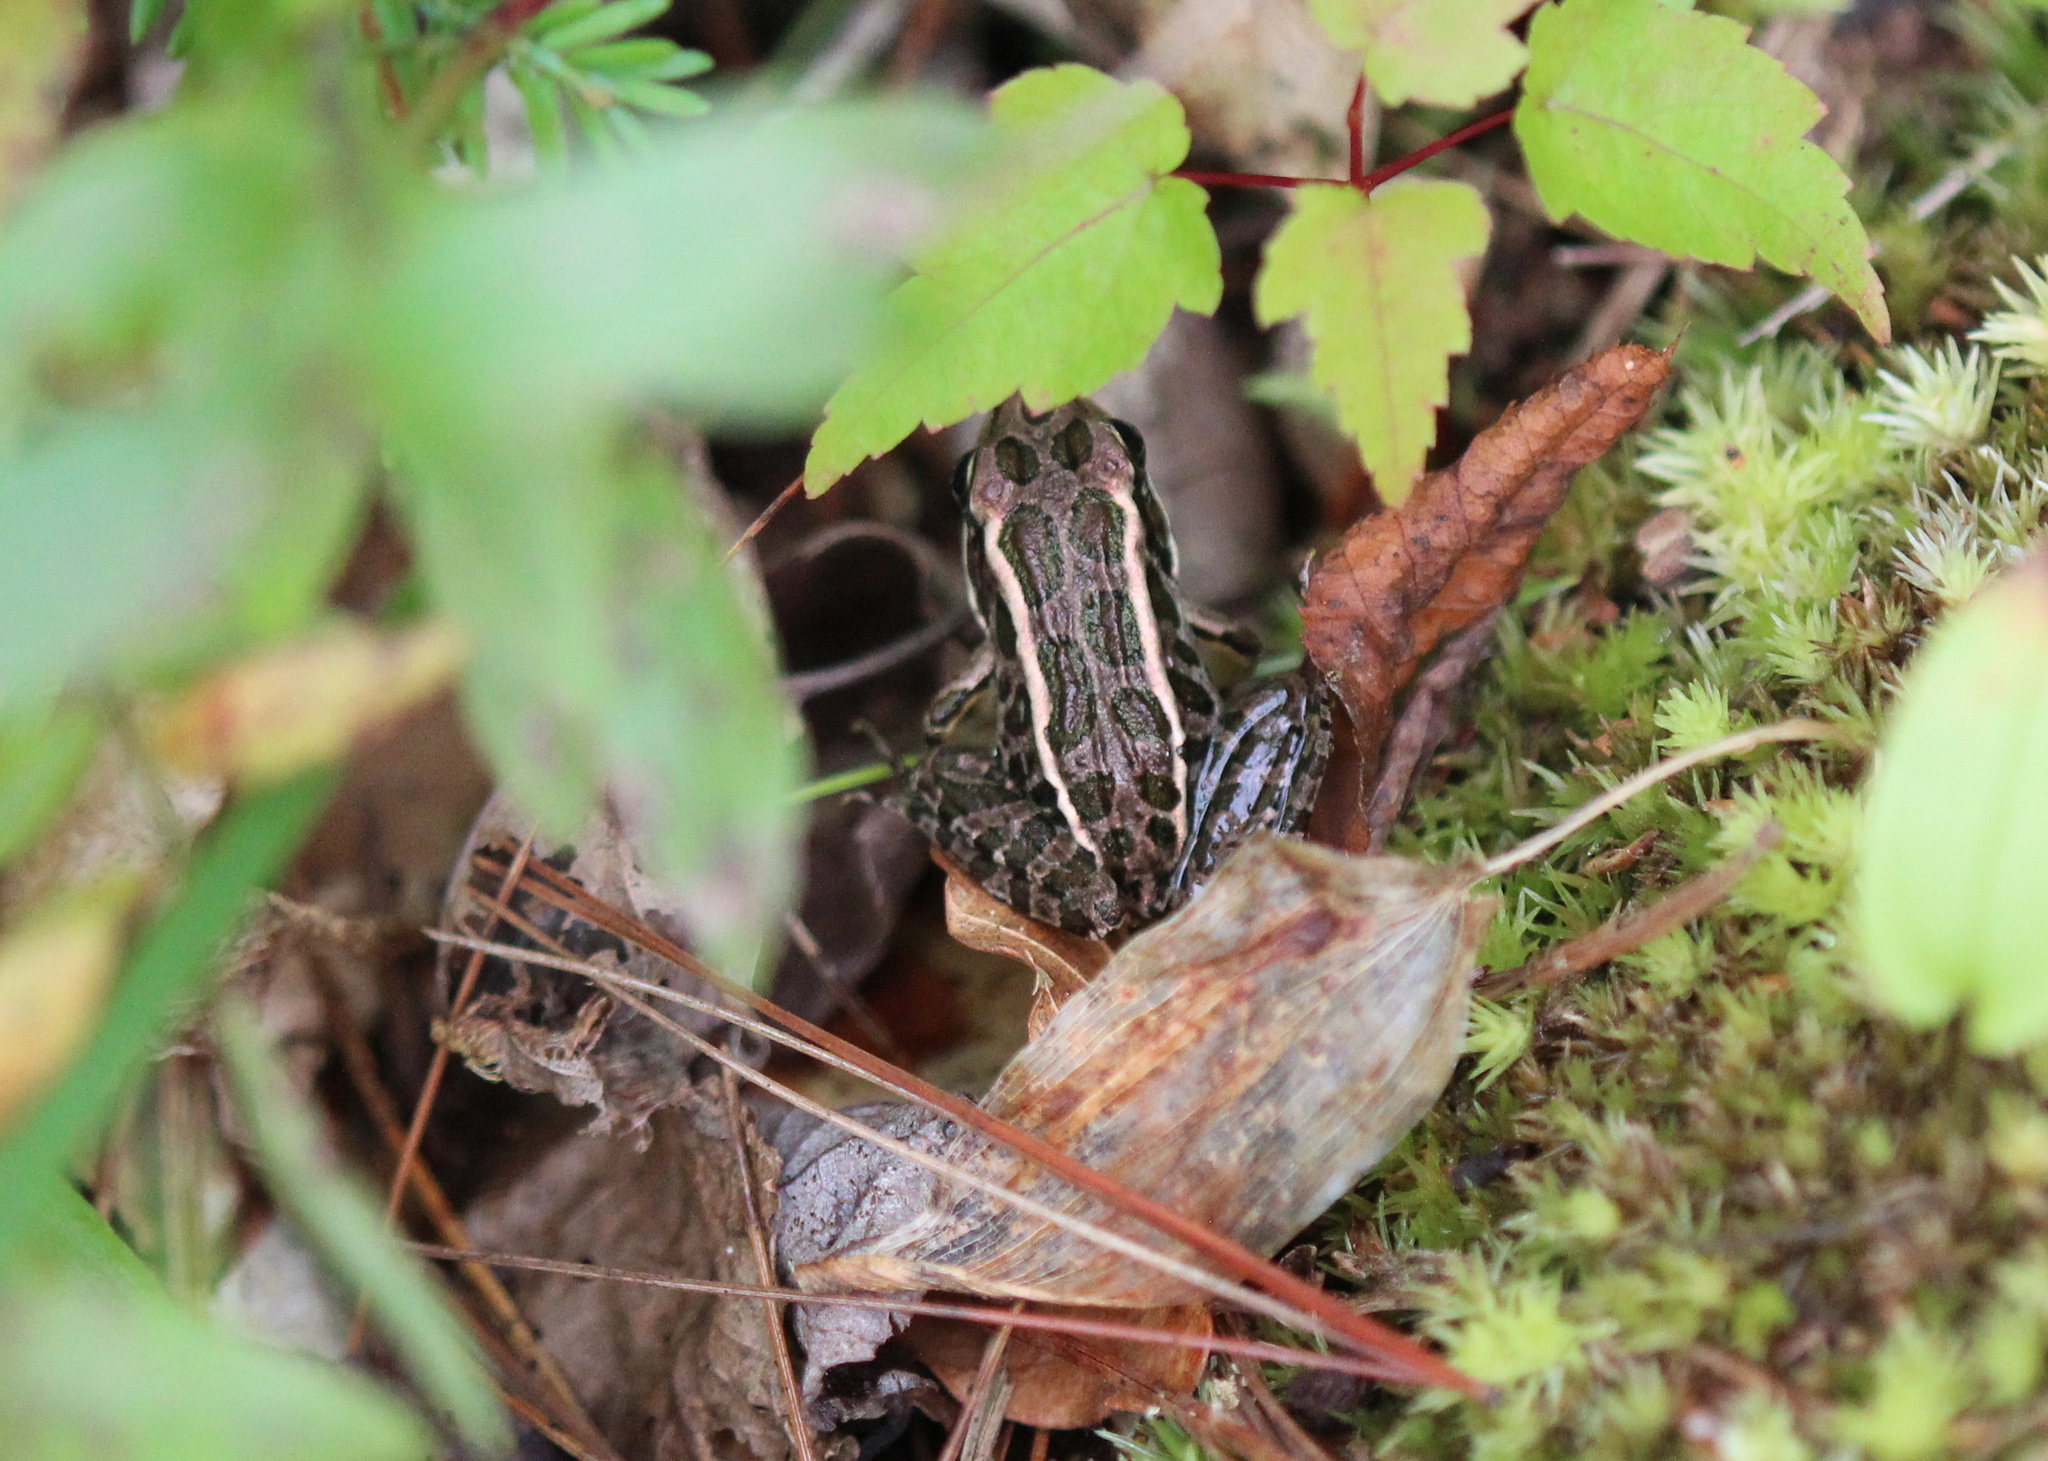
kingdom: Animalia
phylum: Chordata
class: Amphibia
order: Anura
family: Ranidae
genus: Lithobates
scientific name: Lithobates palustris
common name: Pickerel frog
